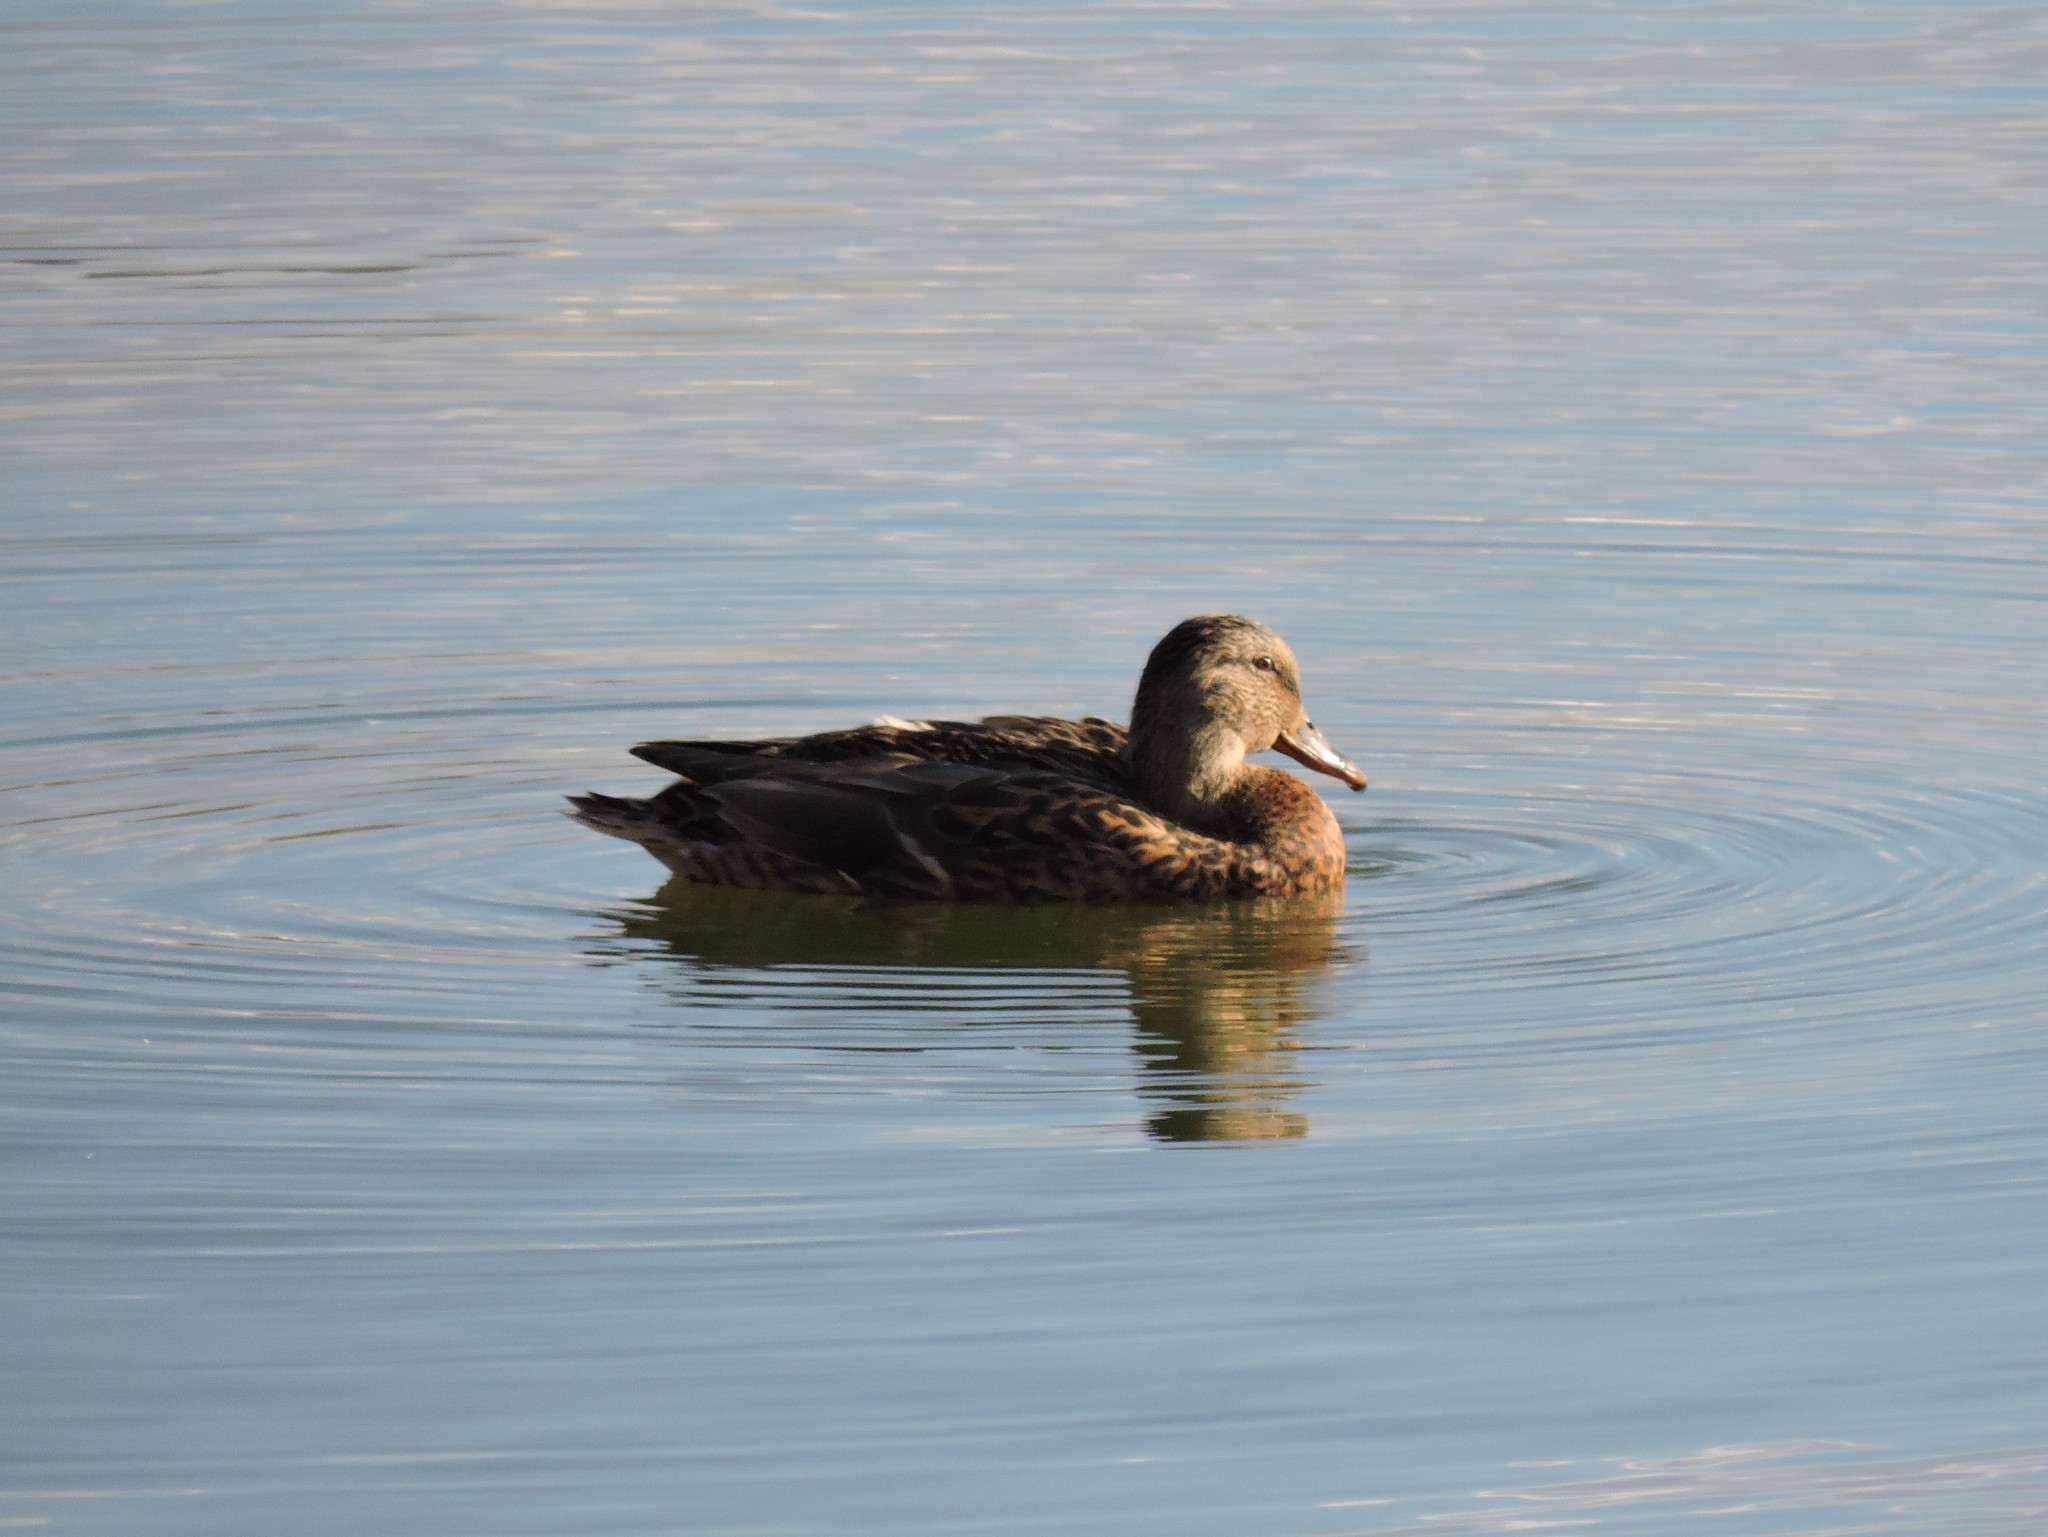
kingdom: Animalia
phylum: Chordata
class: Aves
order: Anseriformes
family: Anatidae
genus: Anas
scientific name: Anas platyrhynchos
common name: Mallard
